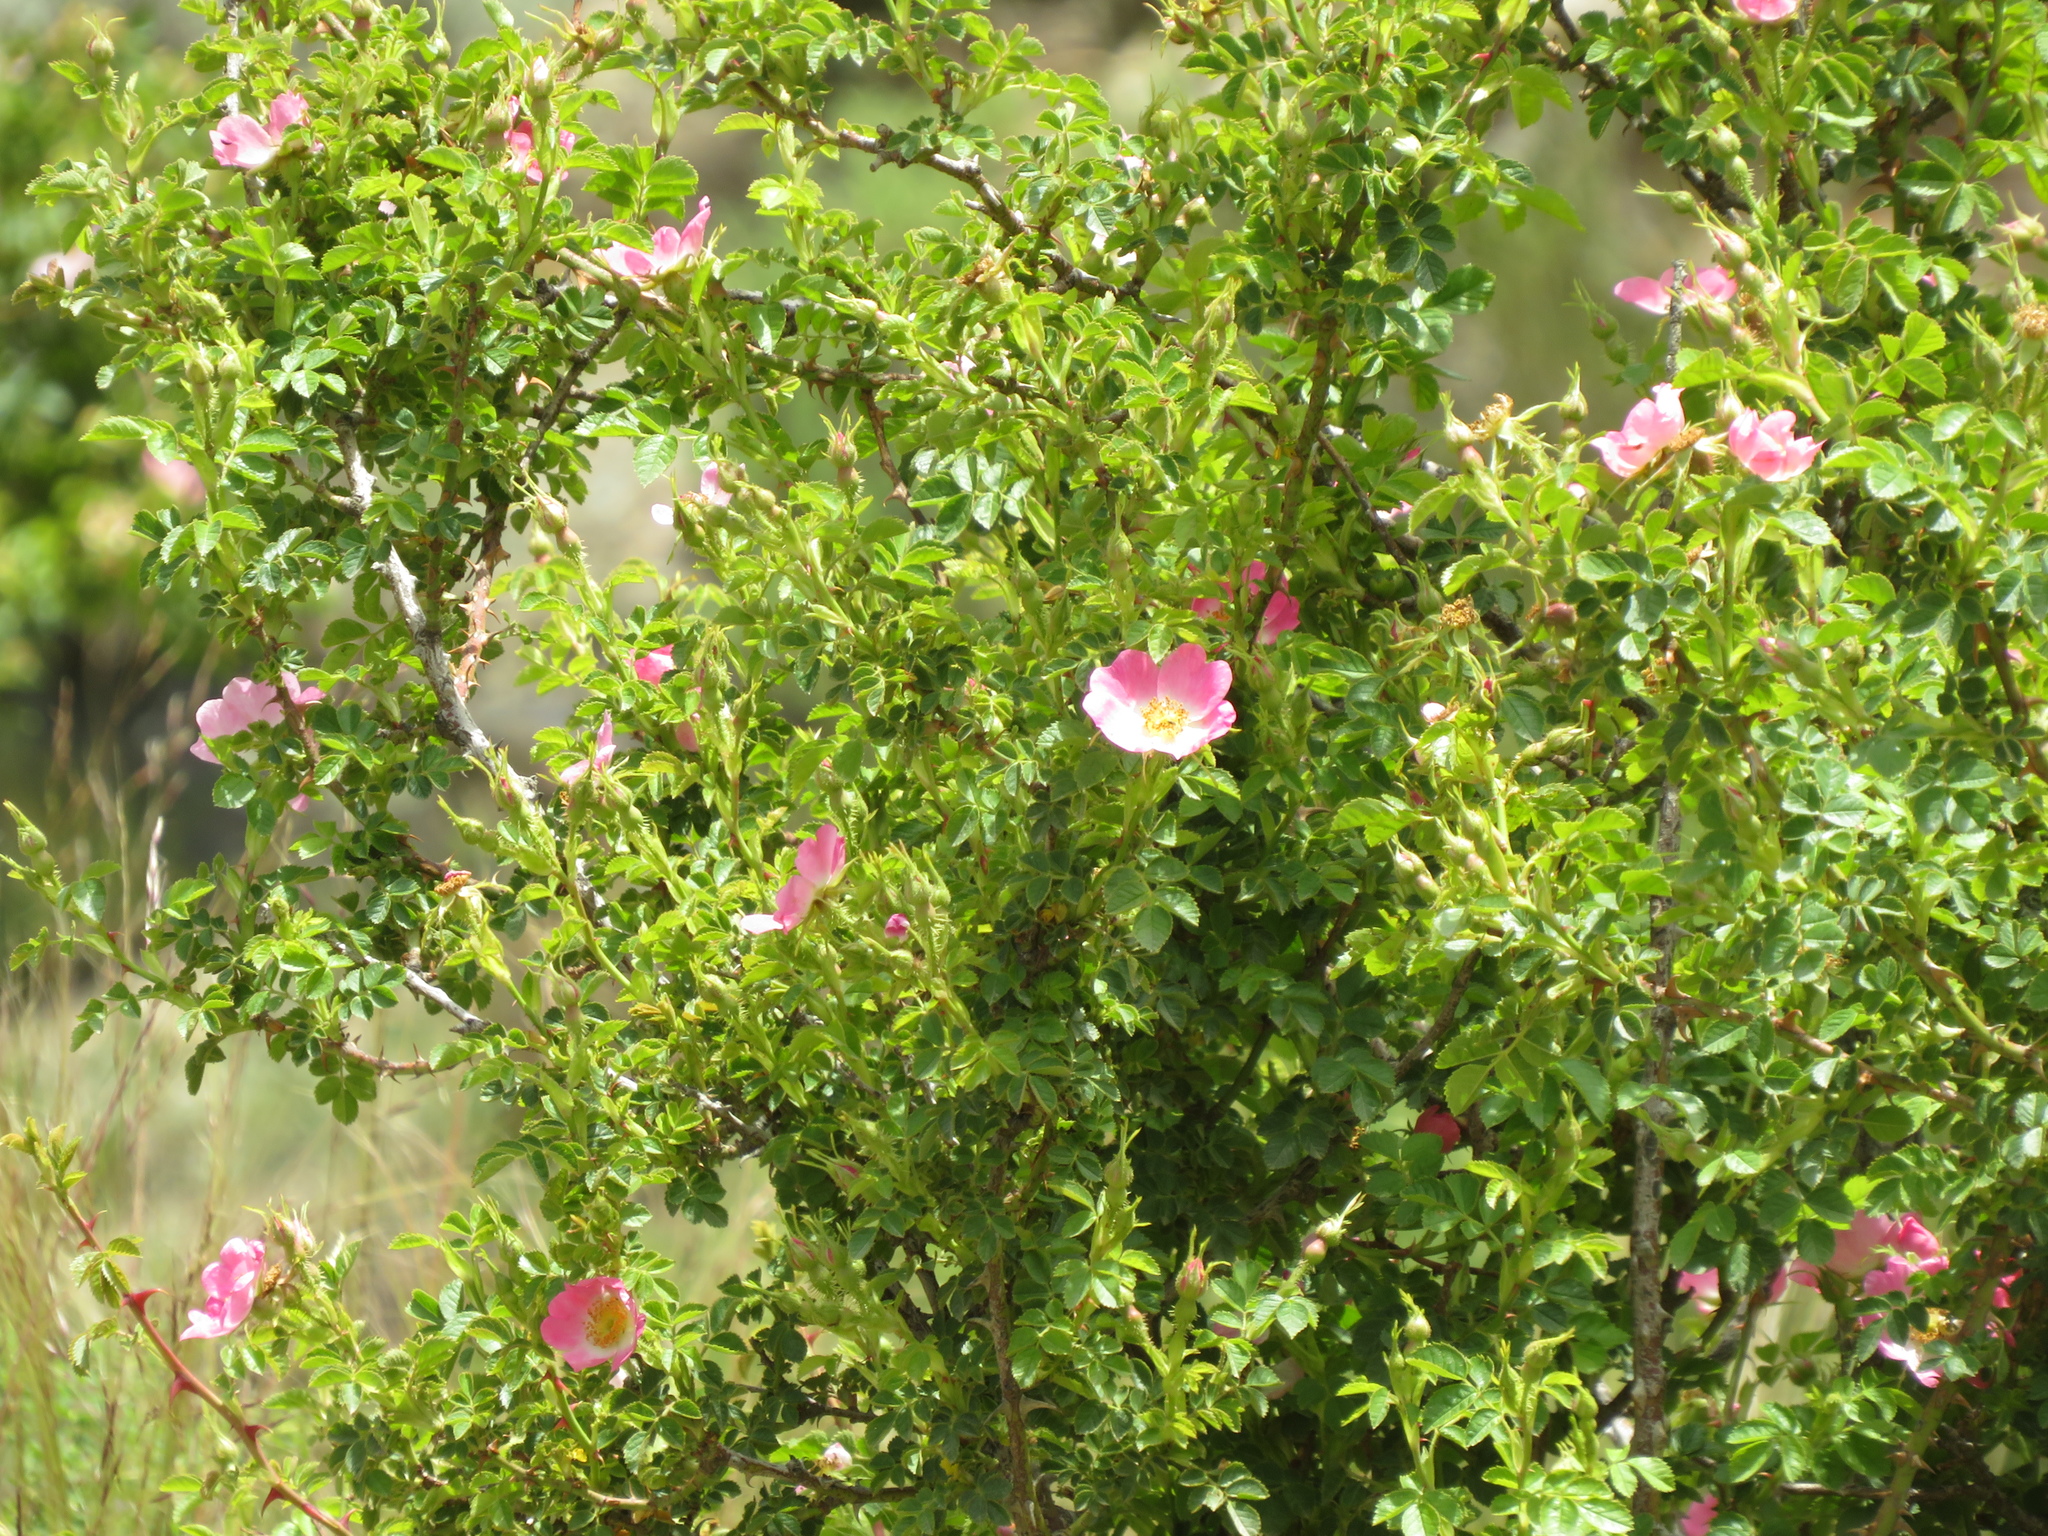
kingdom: Plantae
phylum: Tracheophyta
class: Magnoliopsida
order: Rosales
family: Rosaceae
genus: Rosa
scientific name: Rosa rubiginosa
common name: Sweet-briar
